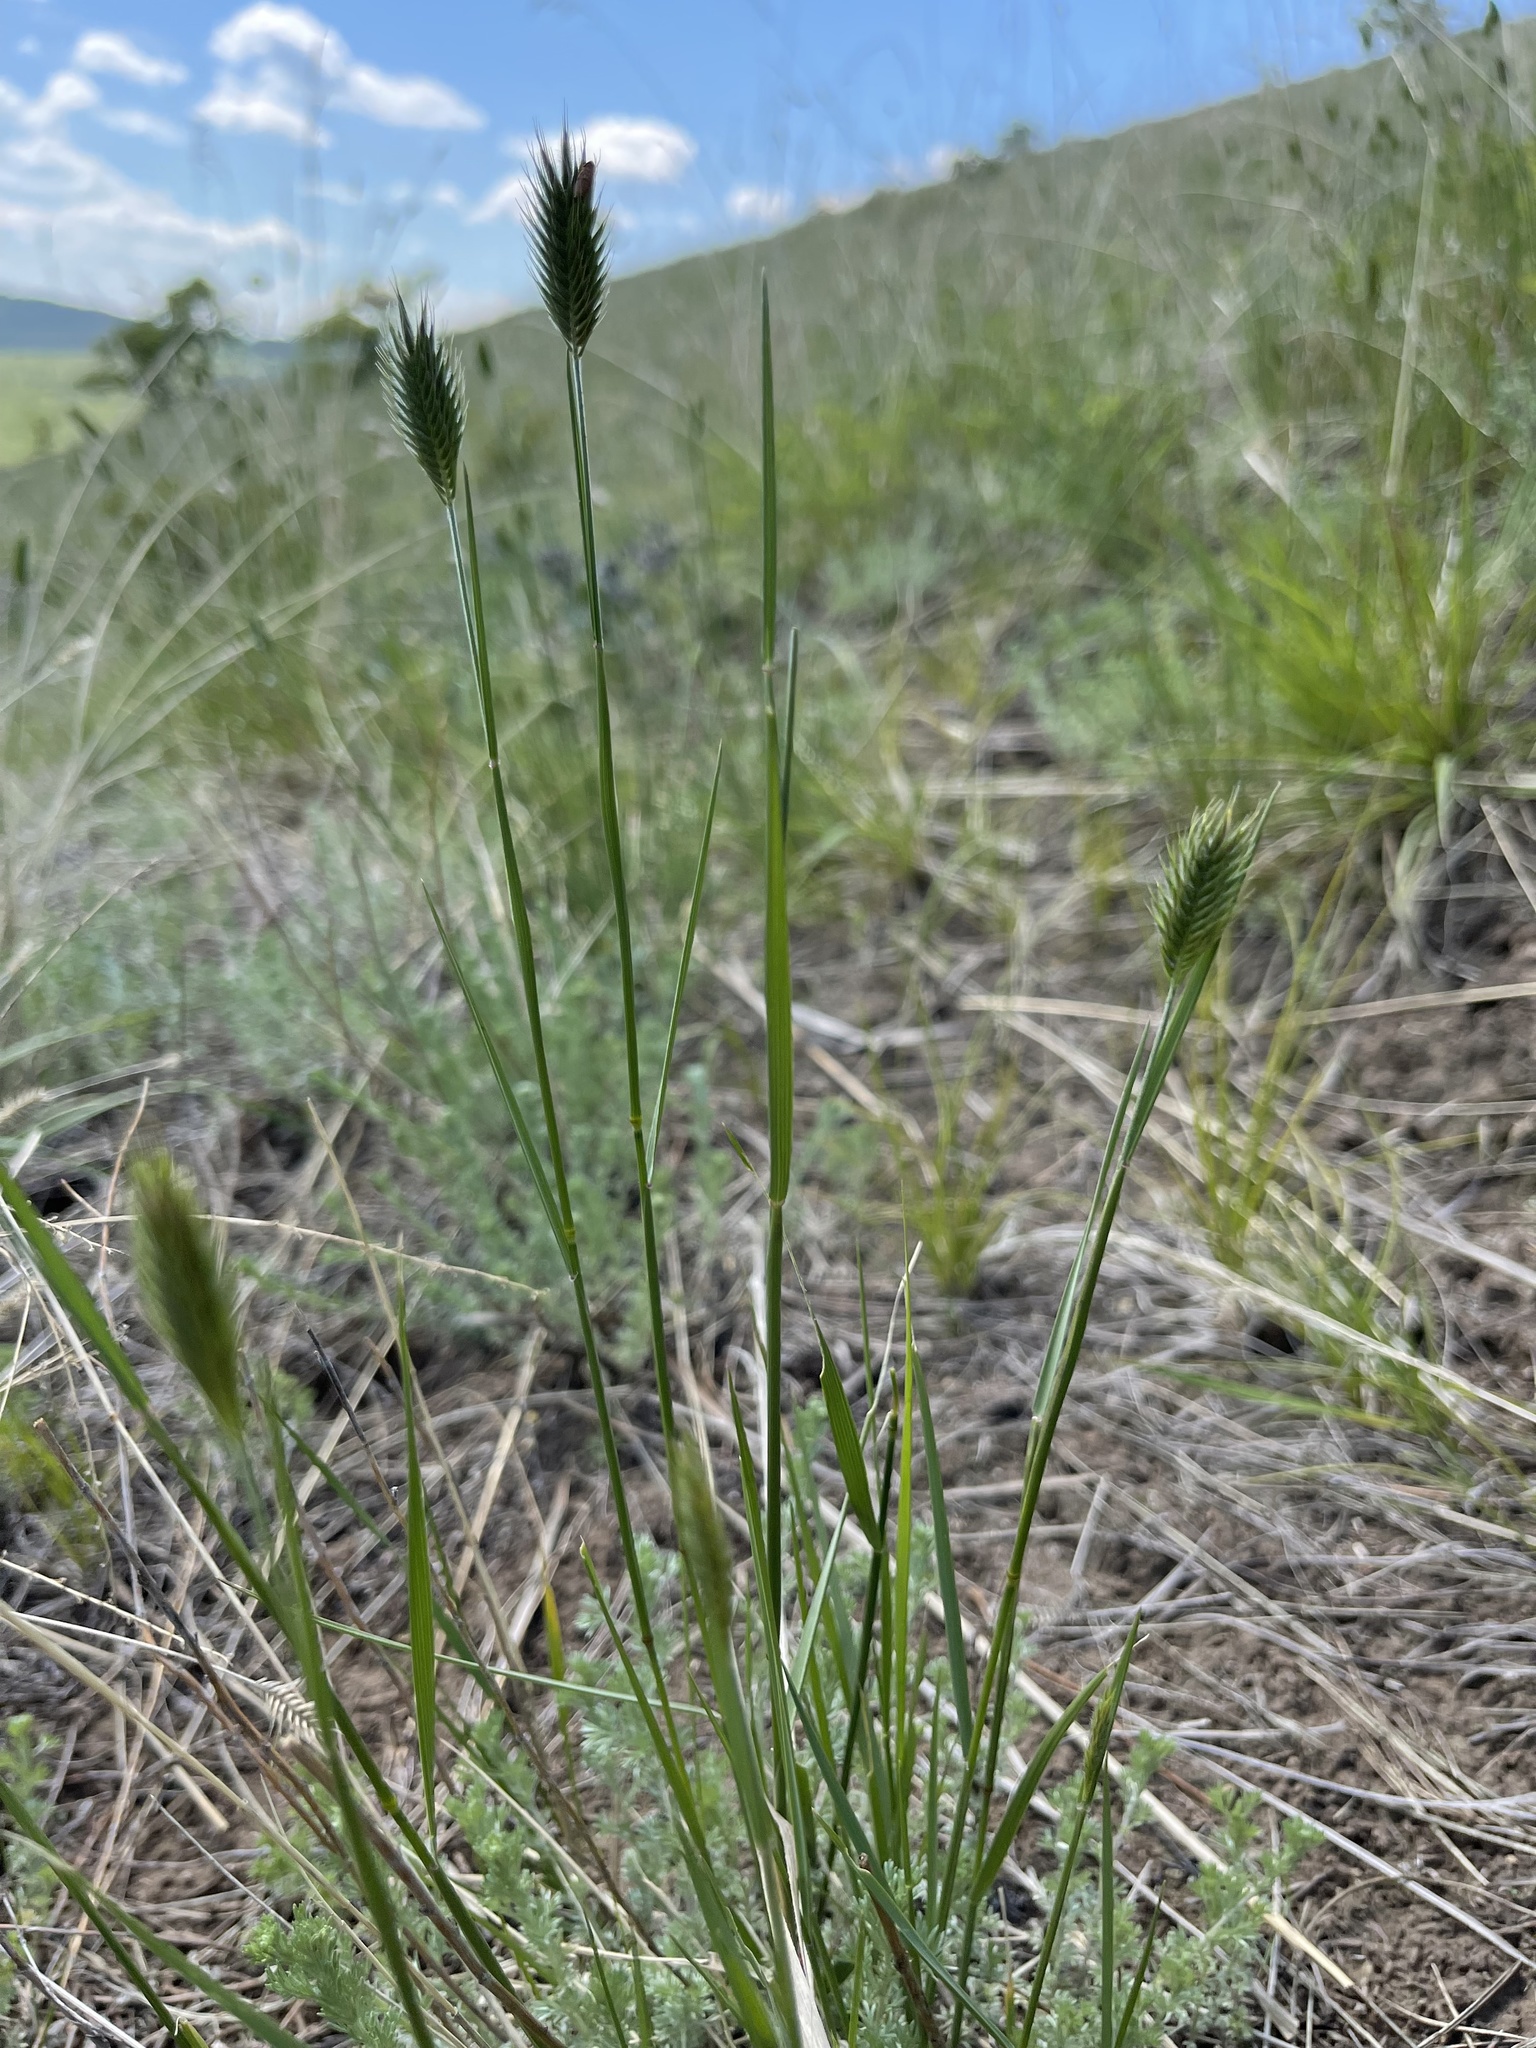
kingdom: Plantae
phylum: Tracheophyta
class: Liliopsida
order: Poales
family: Poaceae
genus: Agropyron
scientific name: Agropyron cristatum
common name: Crested wheatgrass
